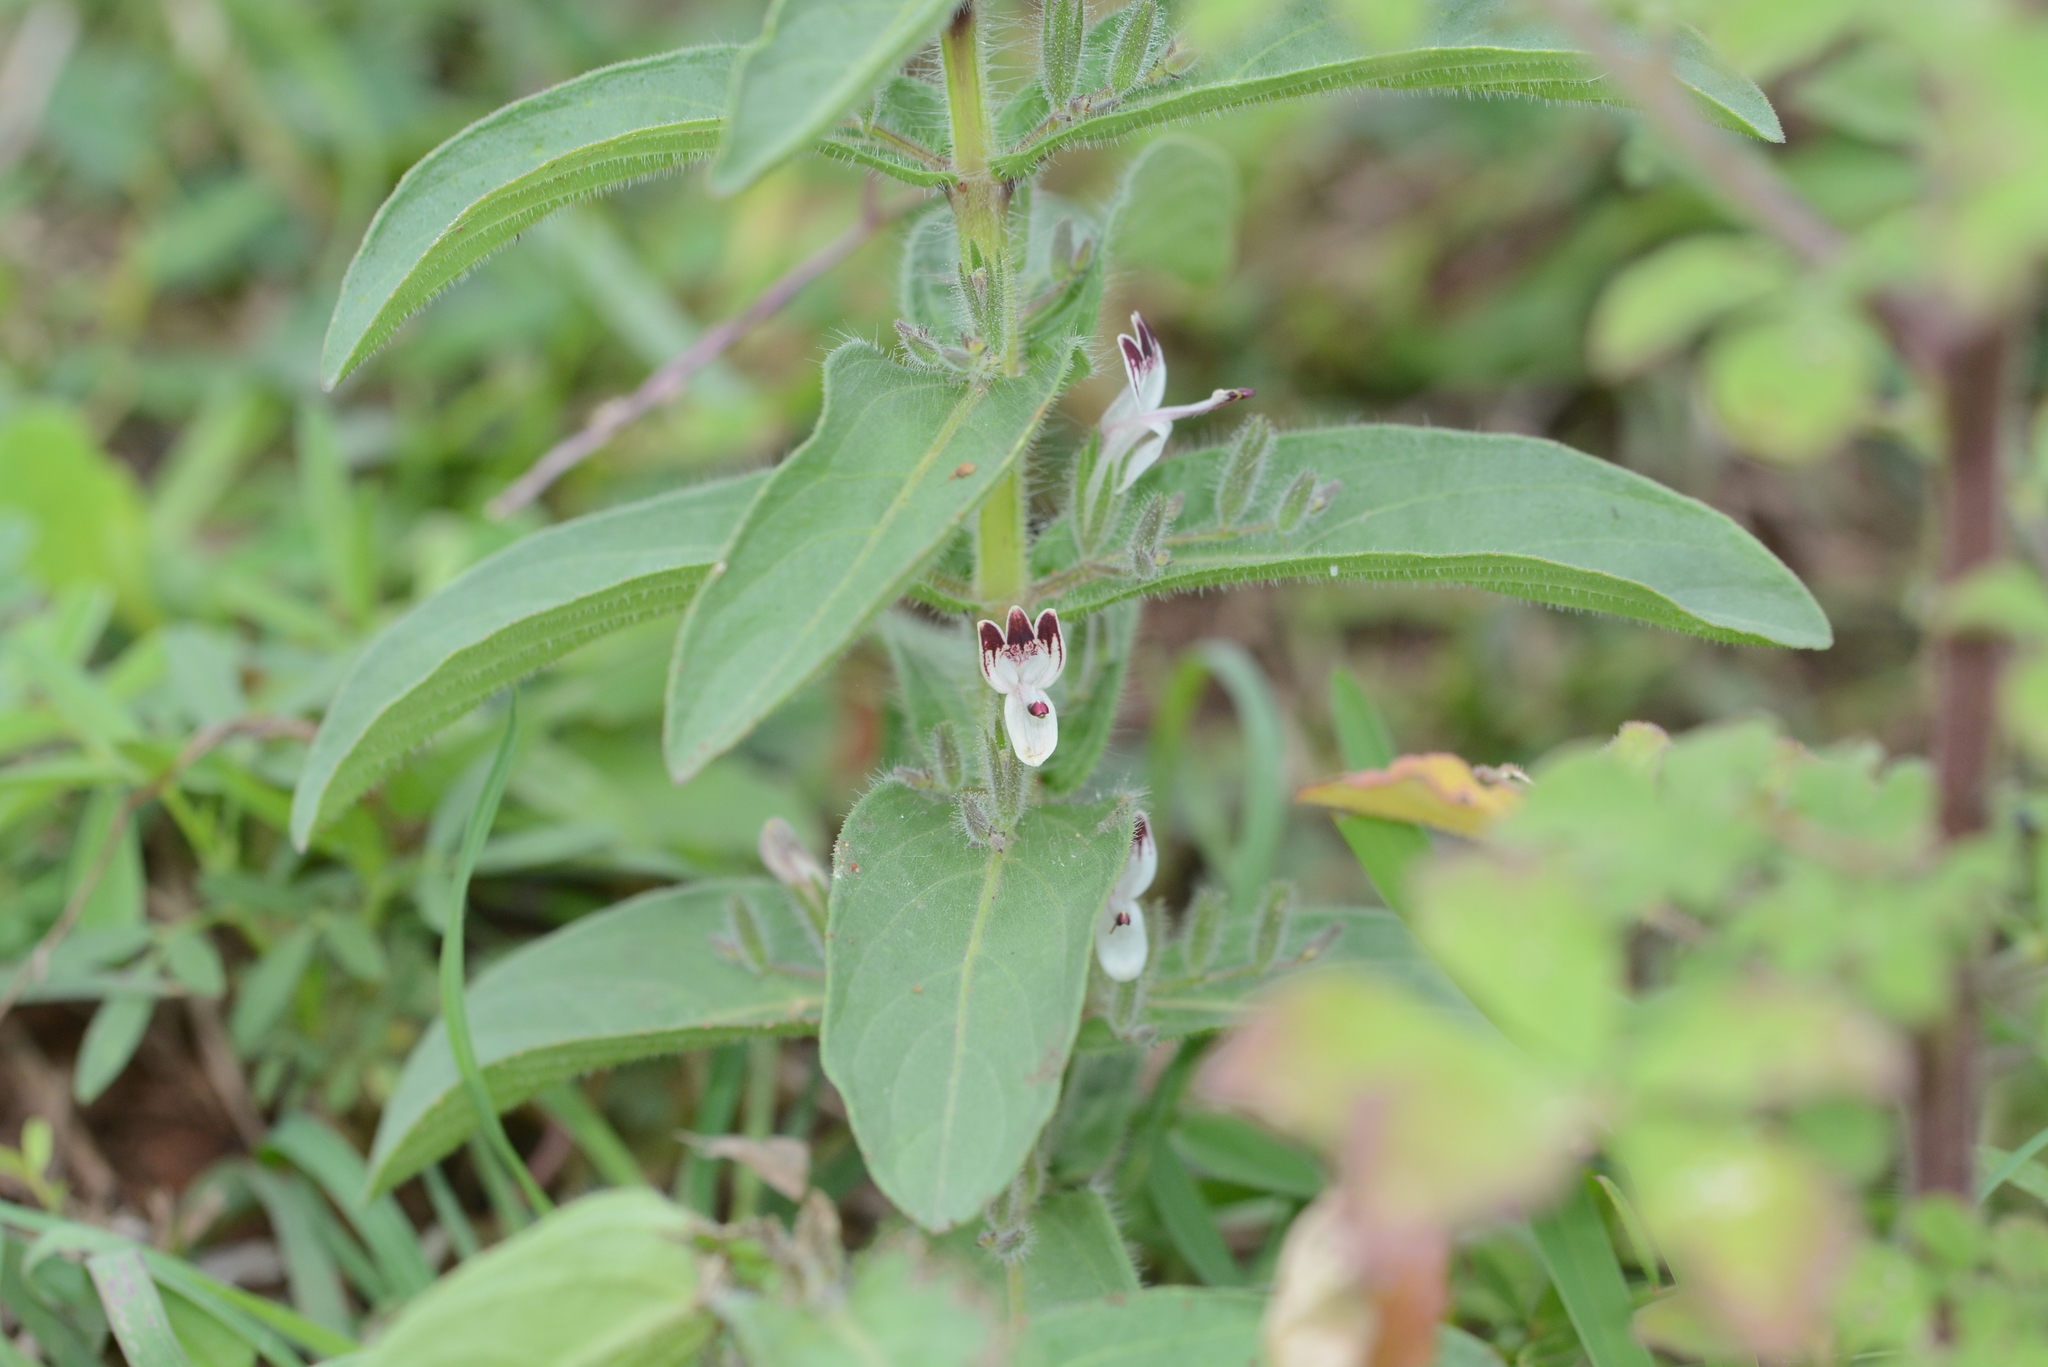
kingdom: Plantae
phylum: Tracheophyta
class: Magnoliopsida
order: Lamiales
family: Acanthaceae
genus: Andrographis
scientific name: Andrographis paniculata
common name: Green chireta
